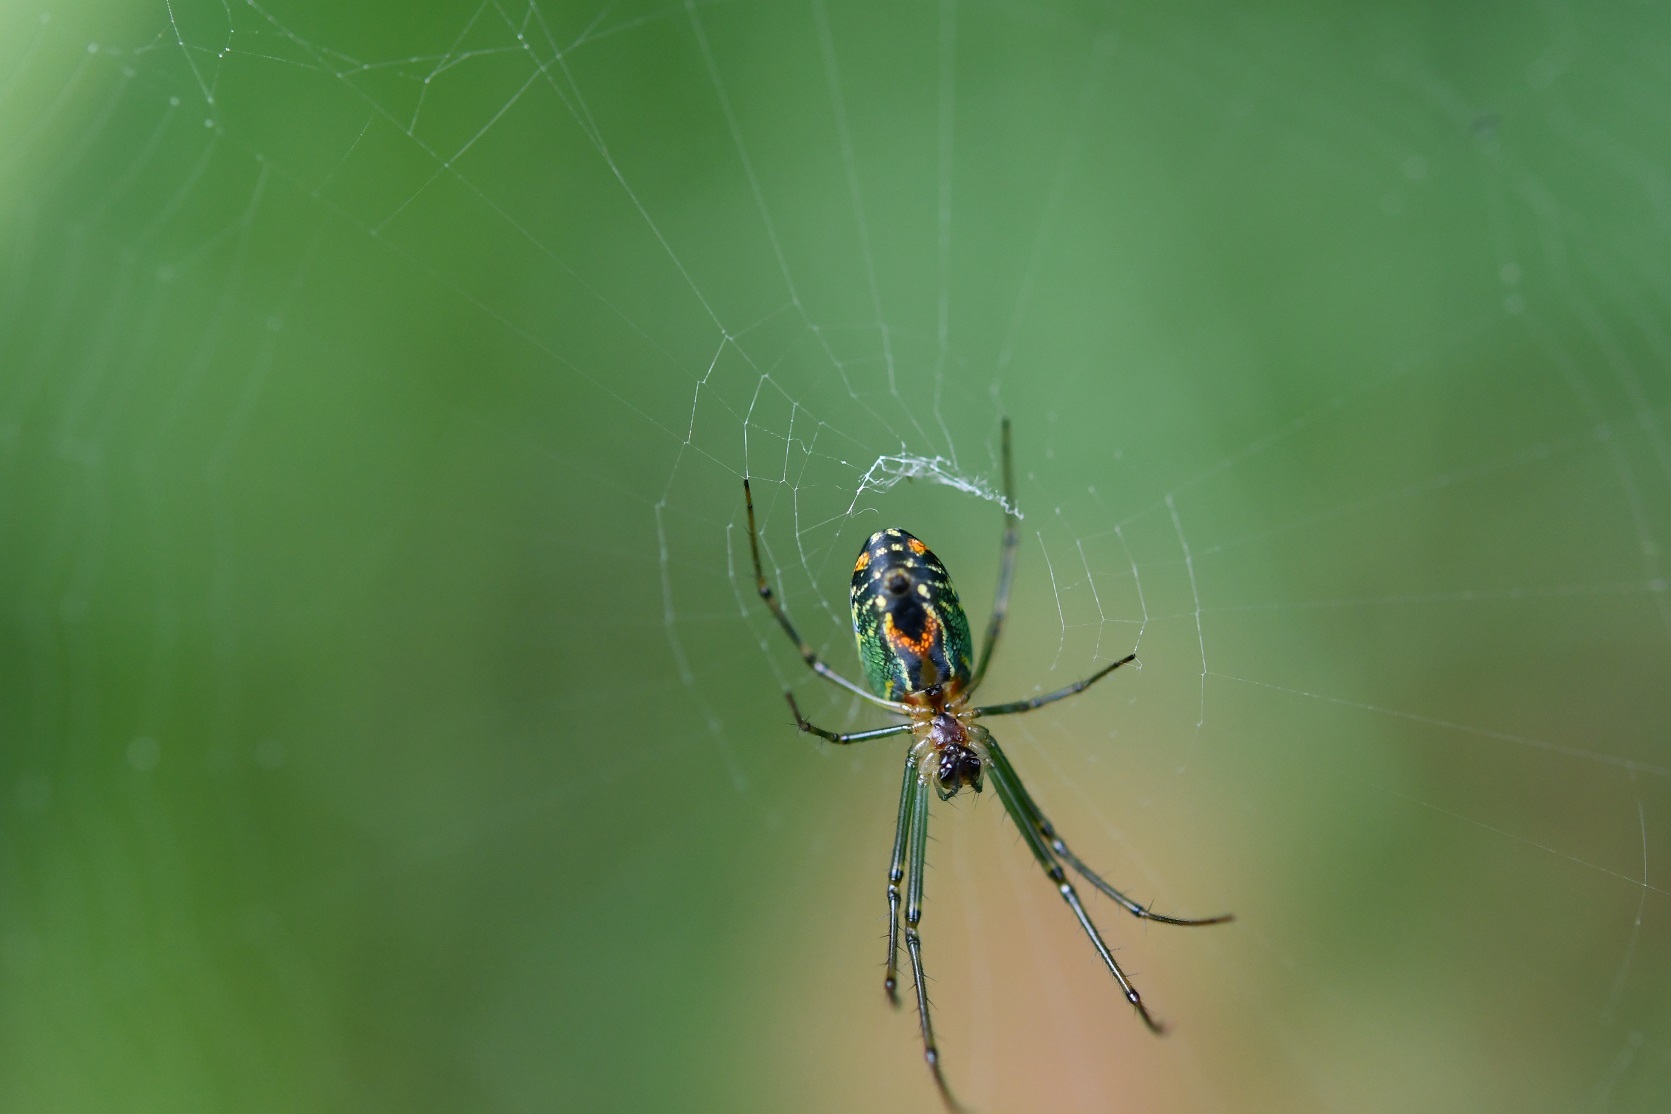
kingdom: Animalia
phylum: Arthropoda
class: Arachnida
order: Araneae
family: Tetragnathidae
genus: Leucauge
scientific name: Leucauge mariana
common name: Longjawed orb weavers
